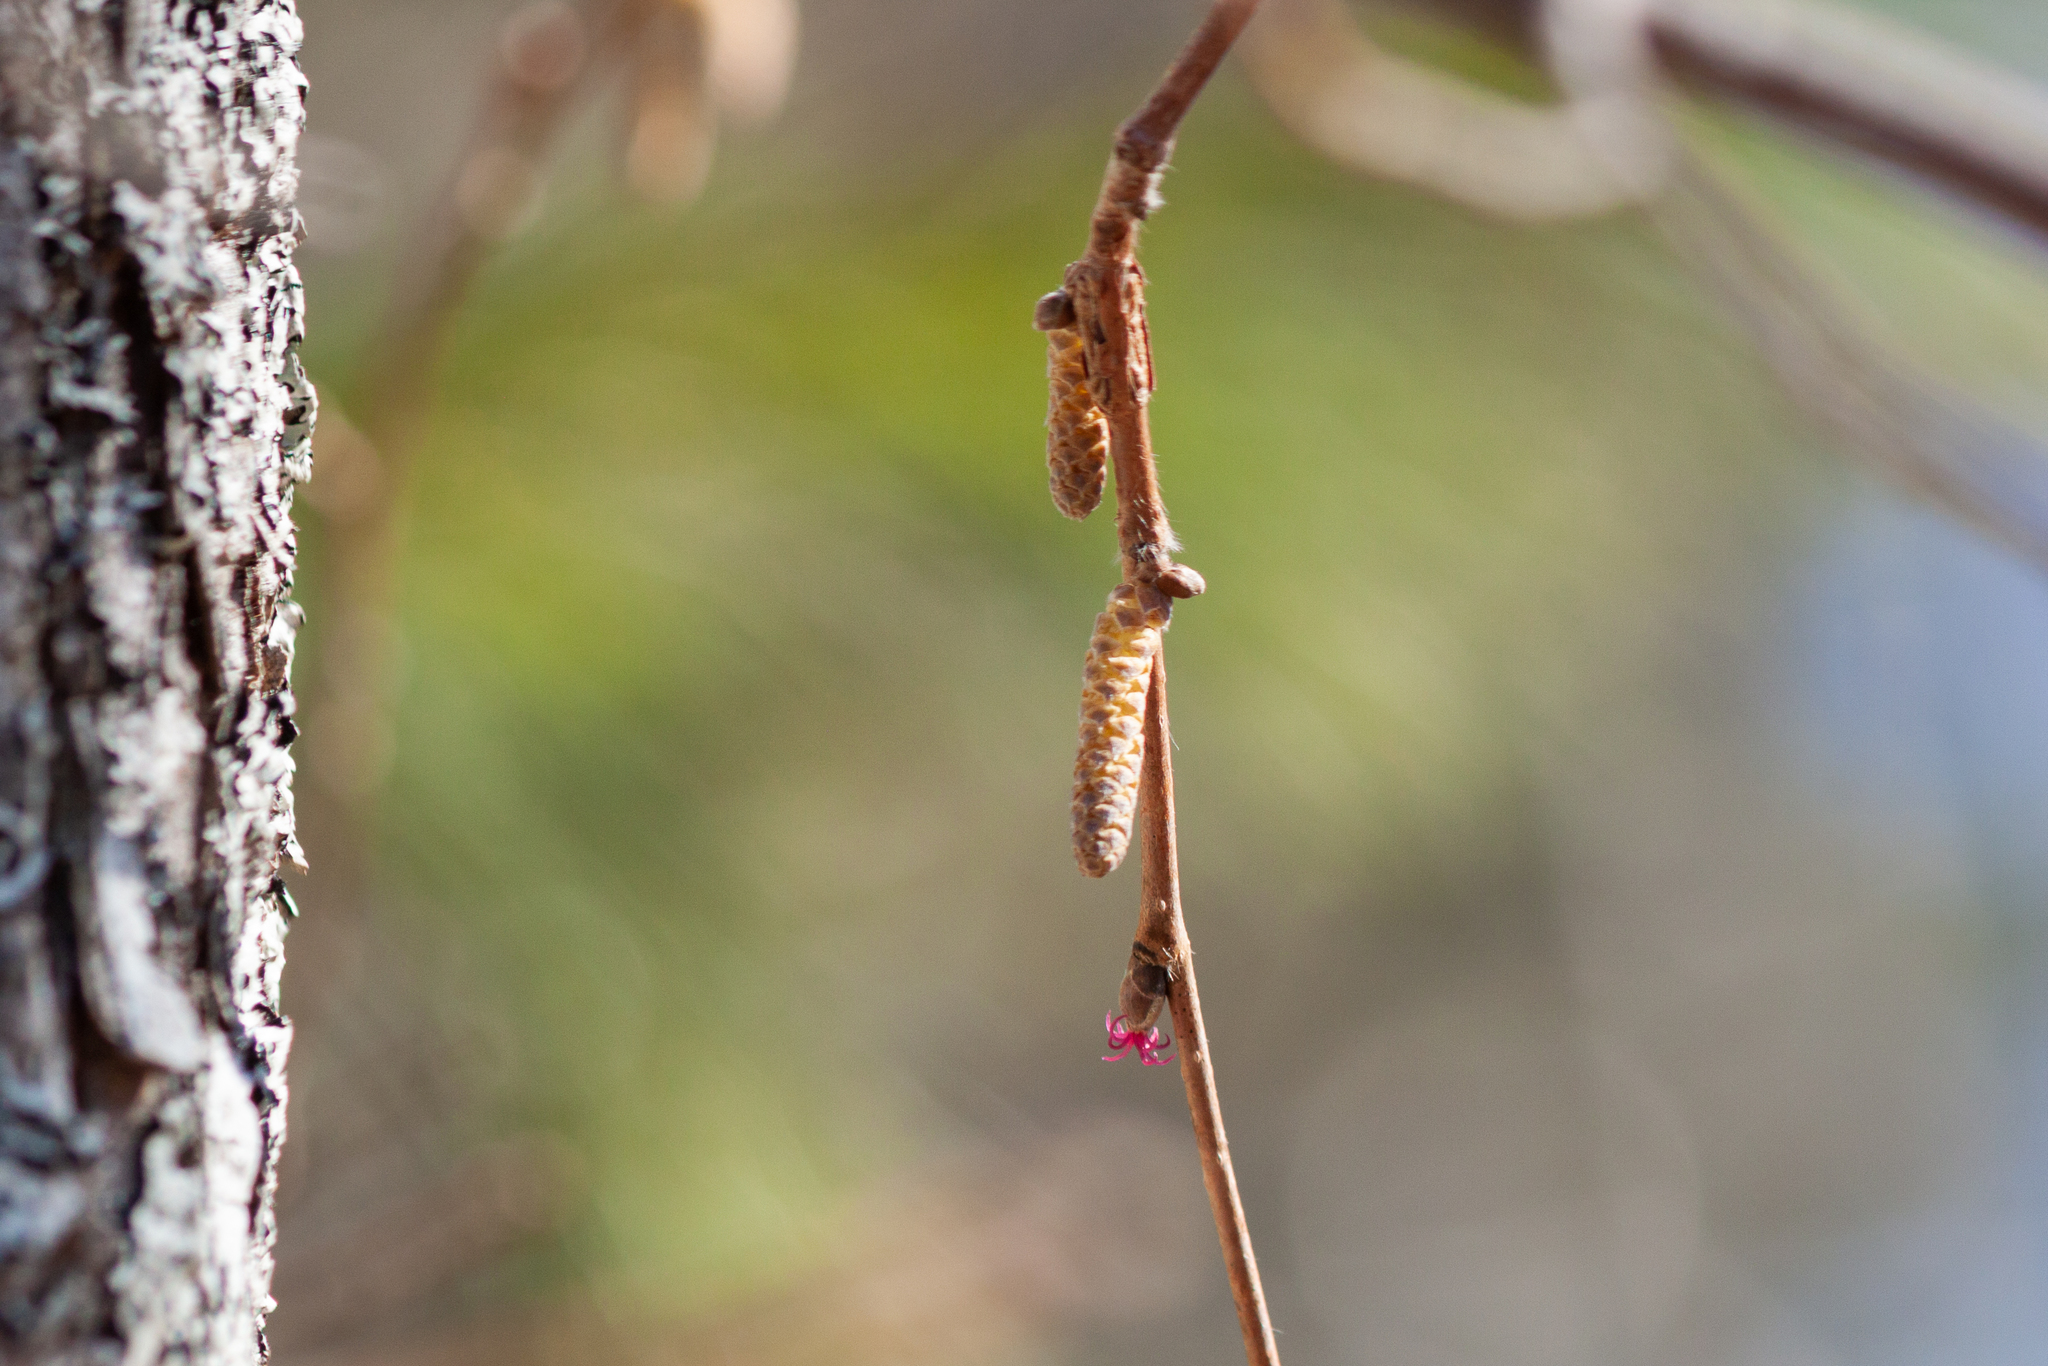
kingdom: Plantae
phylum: Tracheophyta
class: Magnoliopsida
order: Fagales
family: Betulaceae
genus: Corylus
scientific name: Corylus cornuta
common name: Beaked hazel
